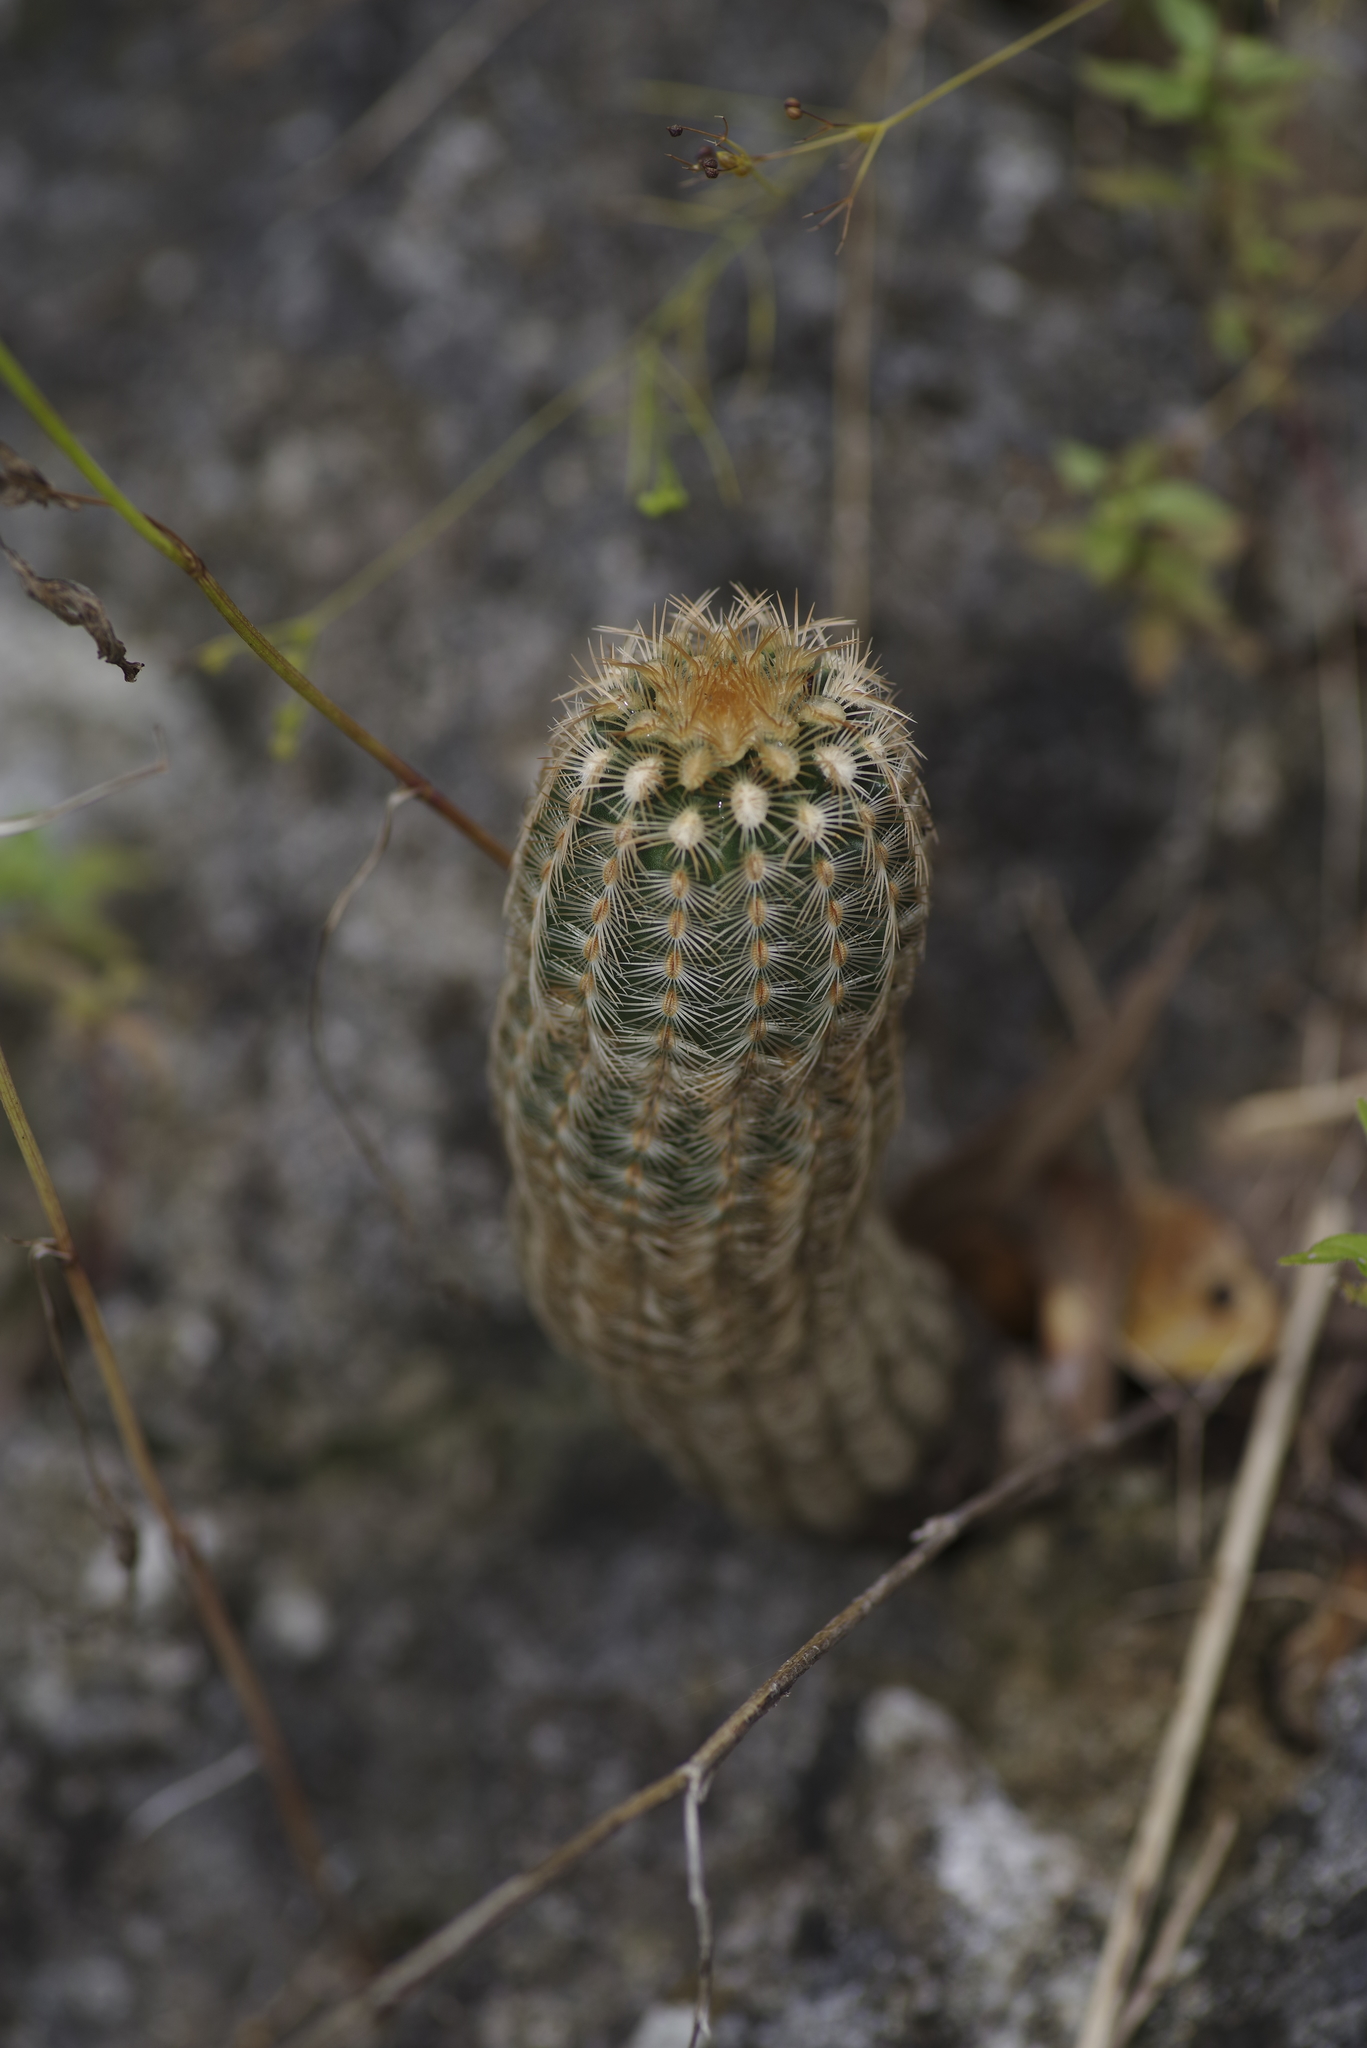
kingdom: Plantae
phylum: Tracheophyta
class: Magnoliopsida
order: Caryophyllales
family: Cactaceae
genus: Echinocereus
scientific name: Echinocereus reichenbachii
